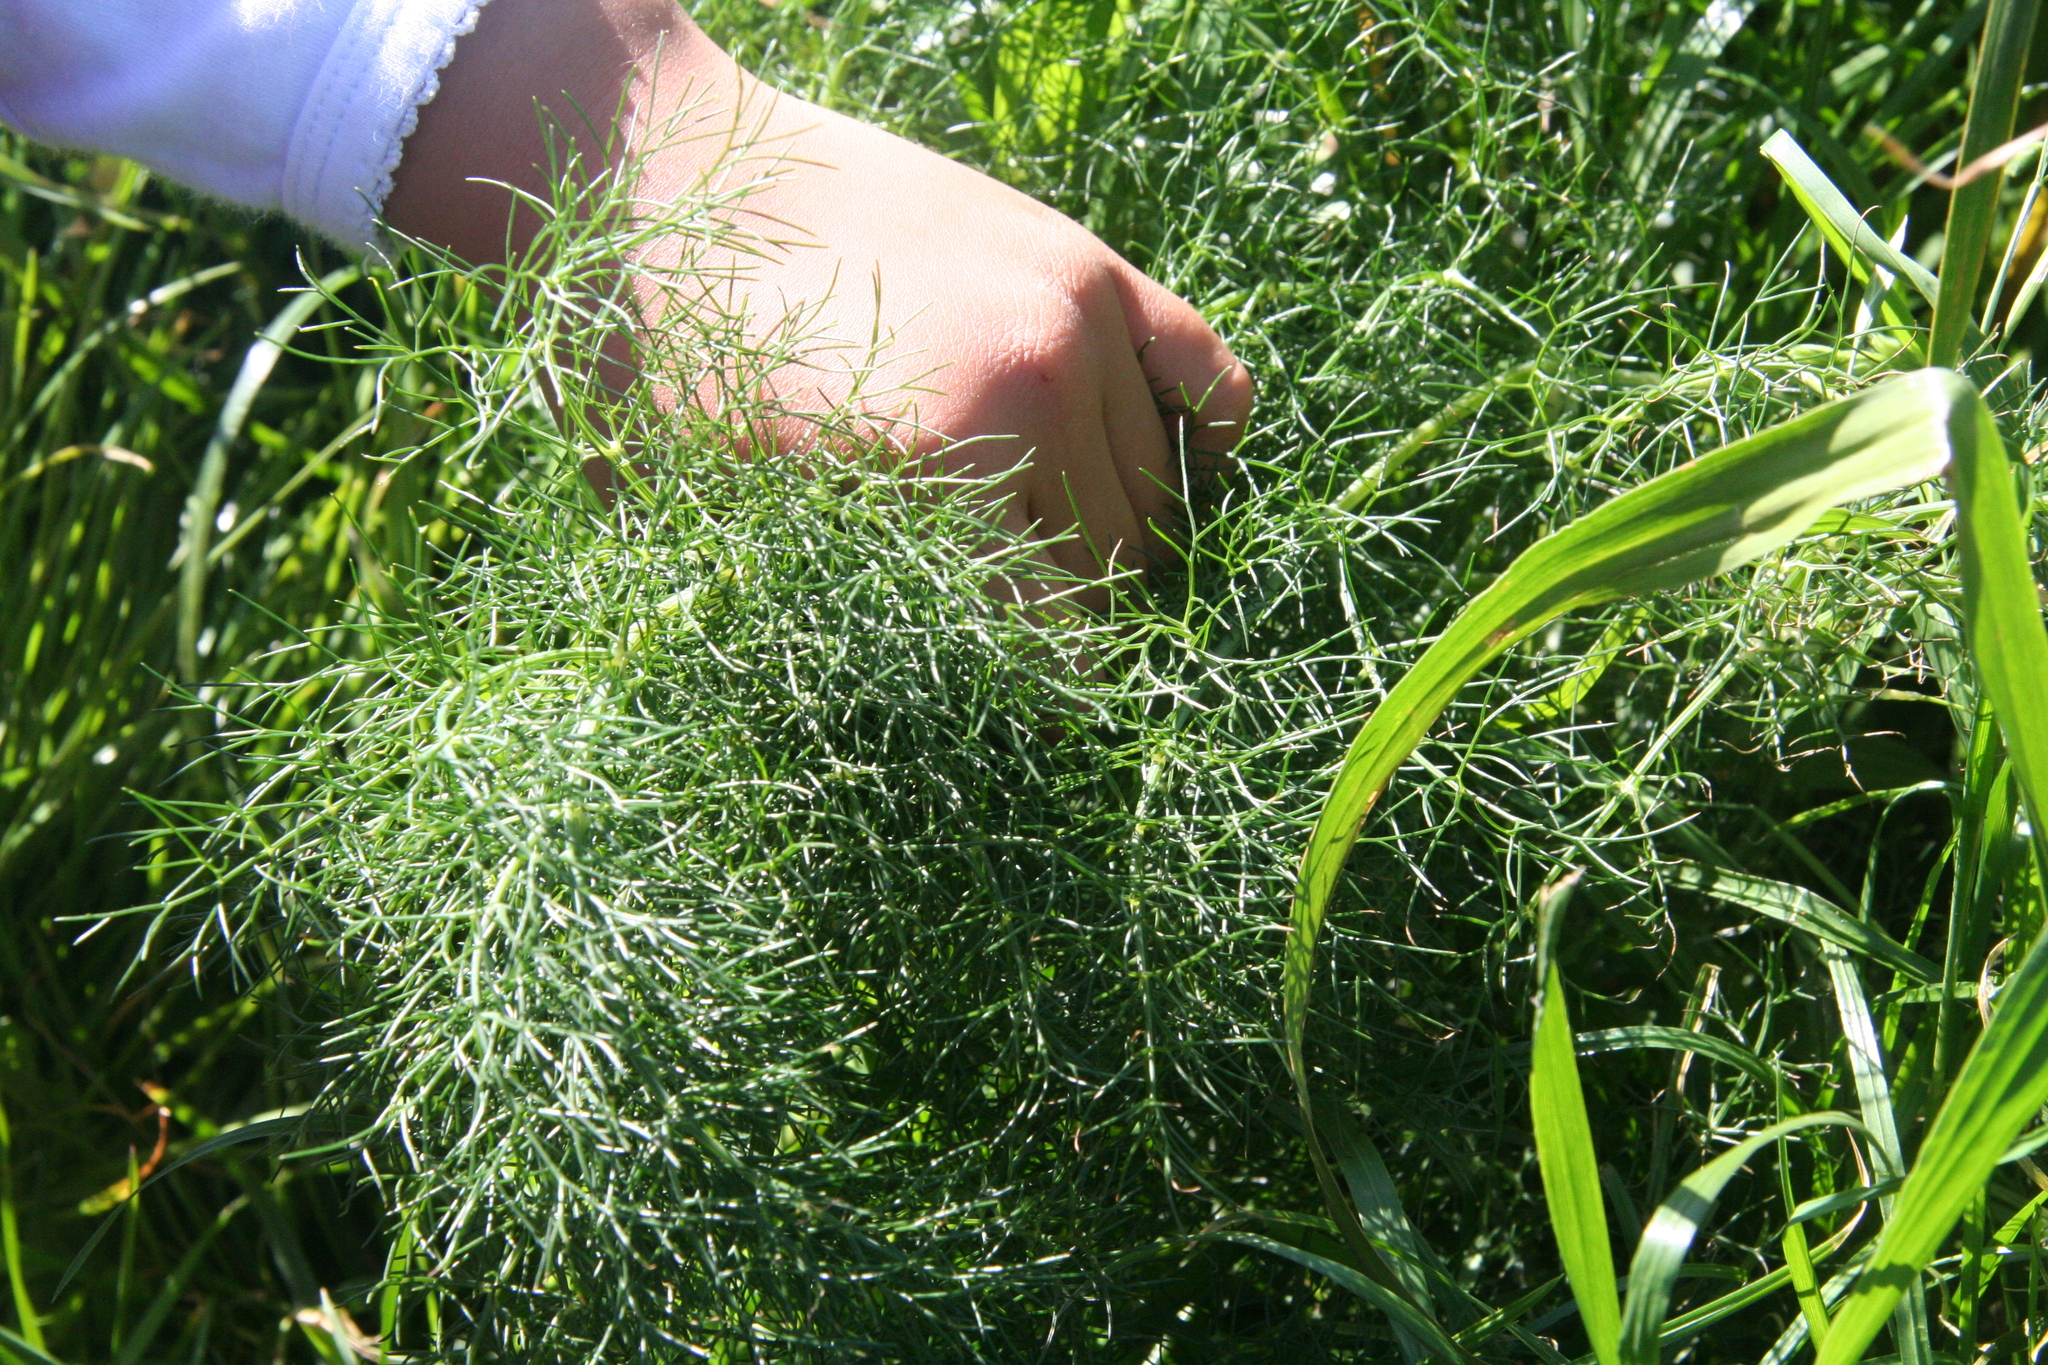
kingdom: Plantae
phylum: Tracheophyta
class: Magnoliopsida
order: Apiales
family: Apiaceae
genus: Foeniculum
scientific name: Foeniculum vulgare
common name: Fennel
